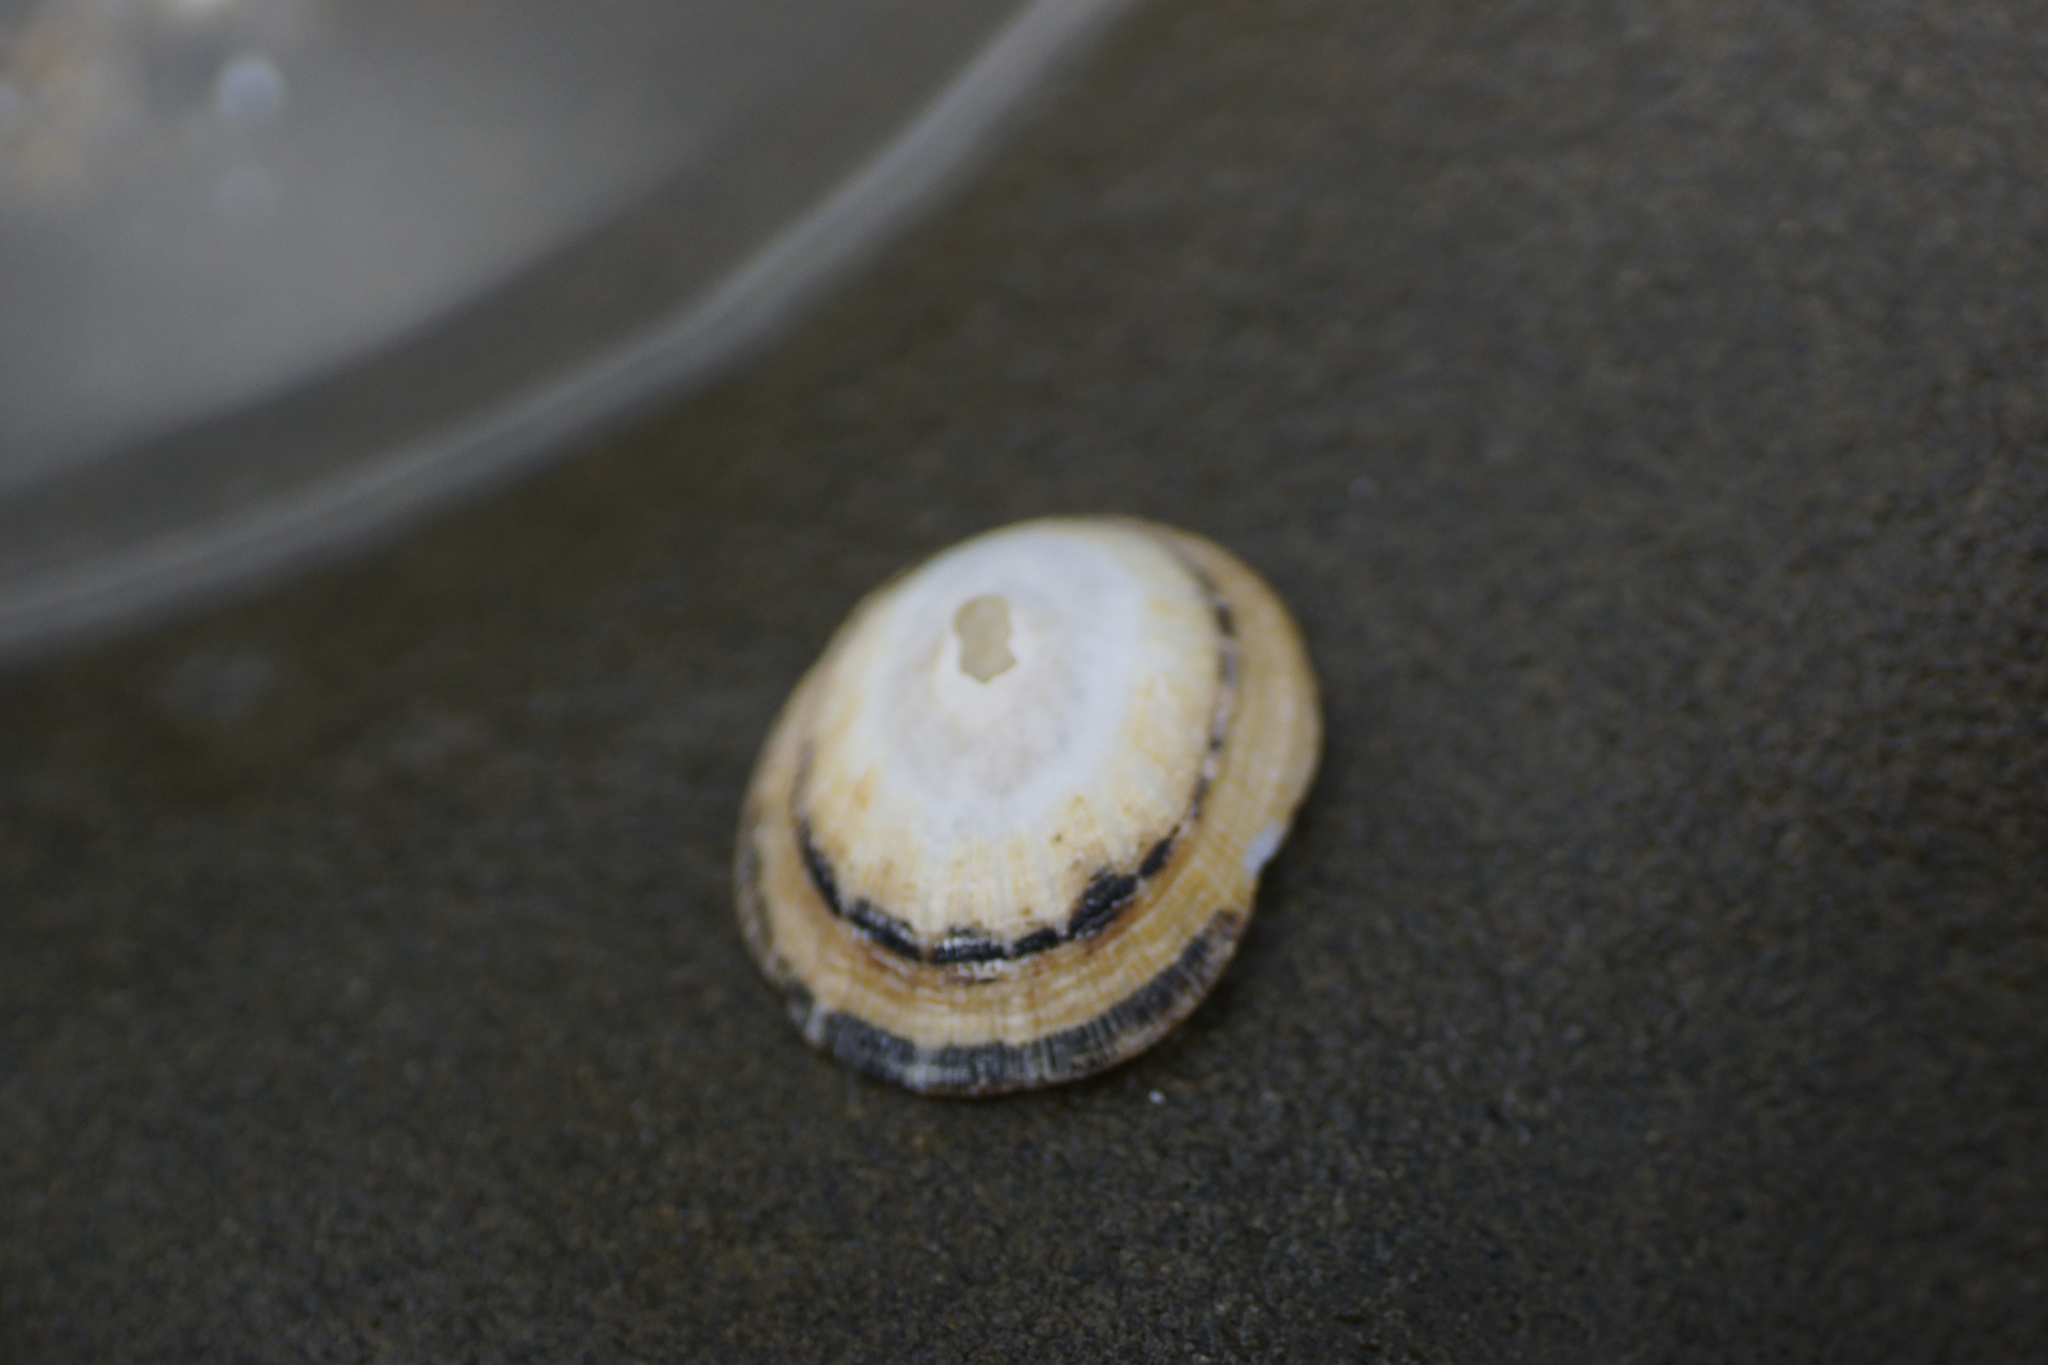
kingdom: Animalia
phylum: Mollusca
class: Gastropoda
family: Patellidae
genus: Scutellastra
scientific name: Scutellastra peronii
